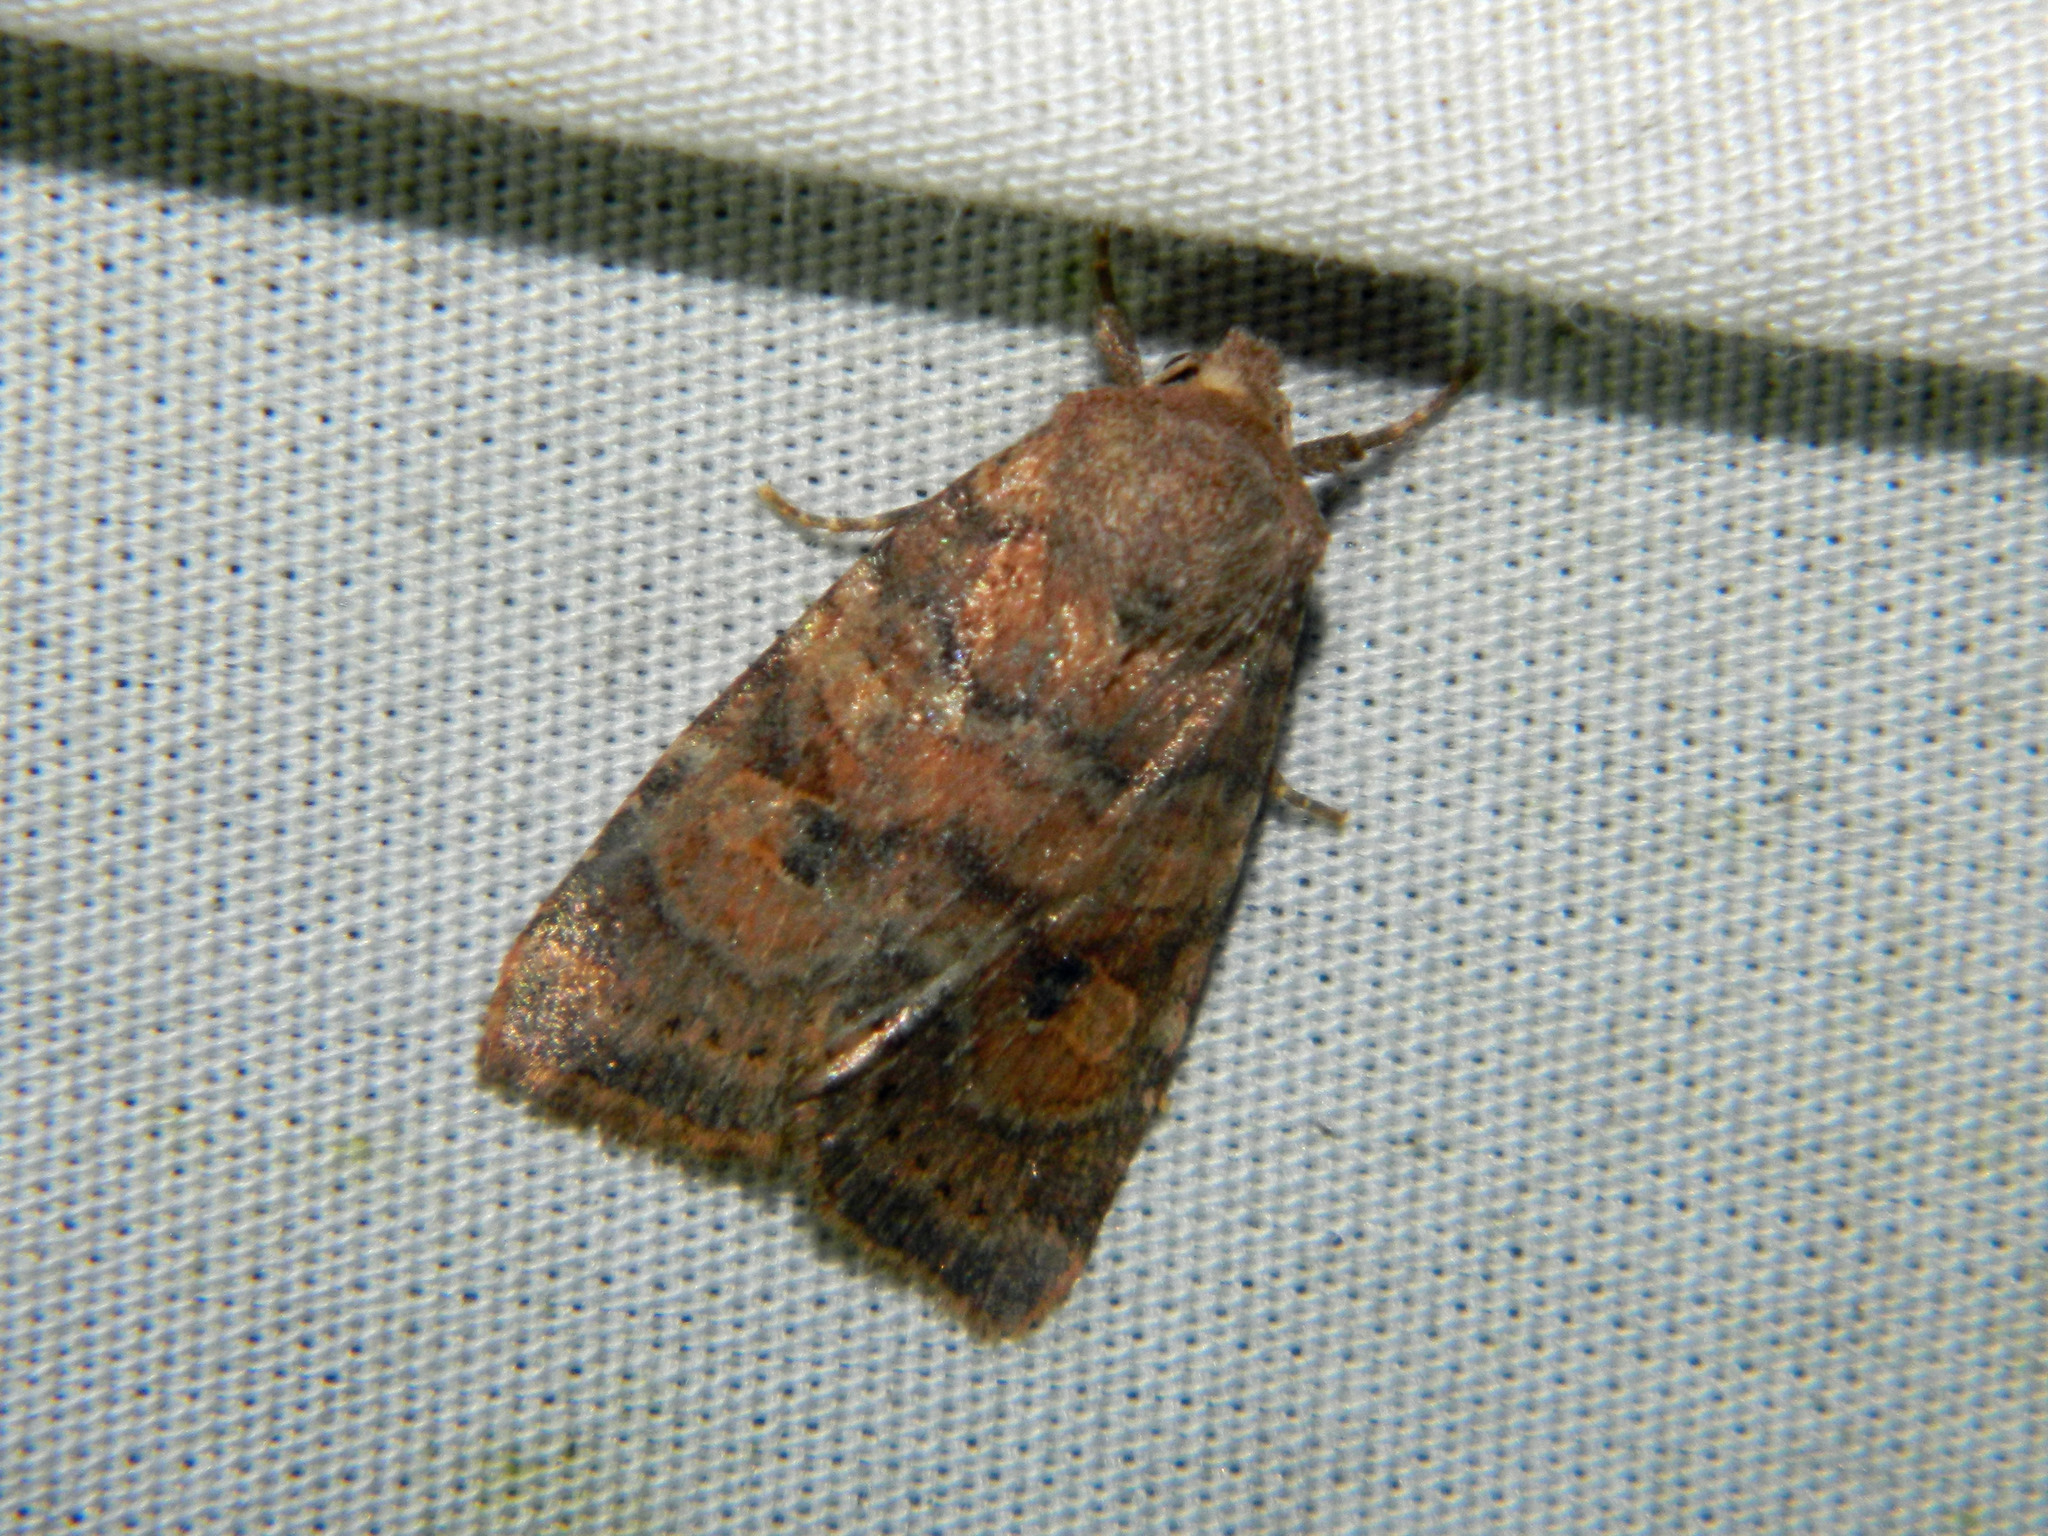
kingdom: Animalia
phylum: Arthropoda
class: Insecta
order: Lepidoptera
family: Noctuidae
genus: Anathix
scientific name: Anathix puta
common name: Puta sallow
